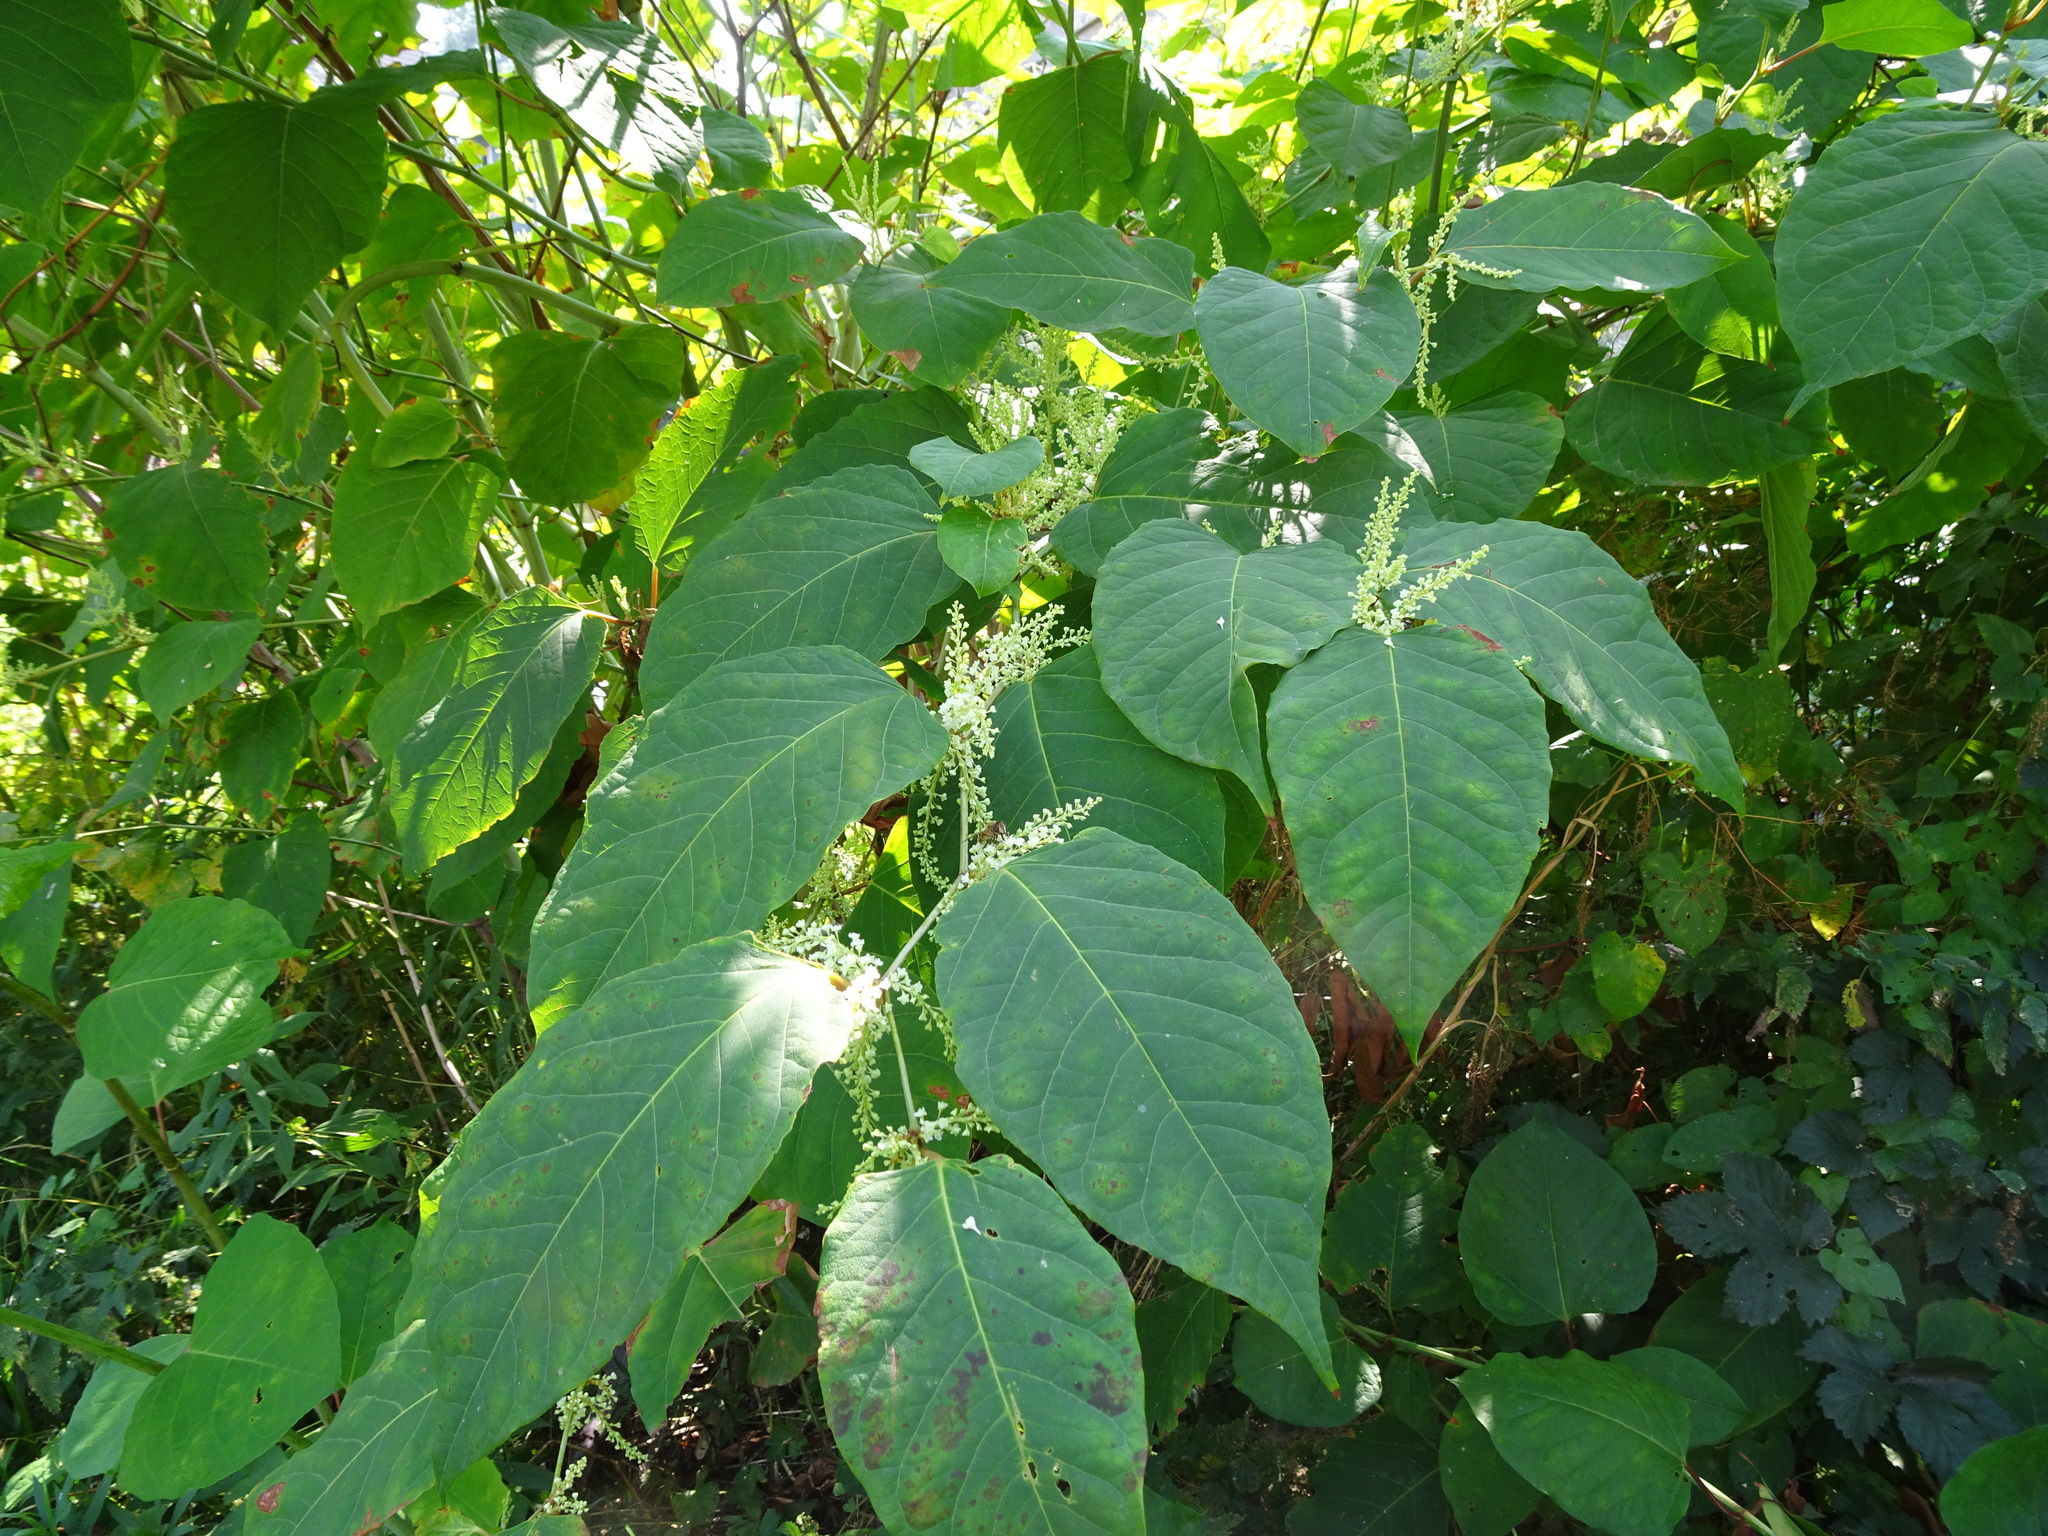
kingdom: Plantae
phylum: Tracheophyta
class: Magnoliopsida
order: Caryophyllales
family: Polygonaceae
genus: Reynoutria
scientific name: Reynoutria japonica
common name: Japanese knotweed
